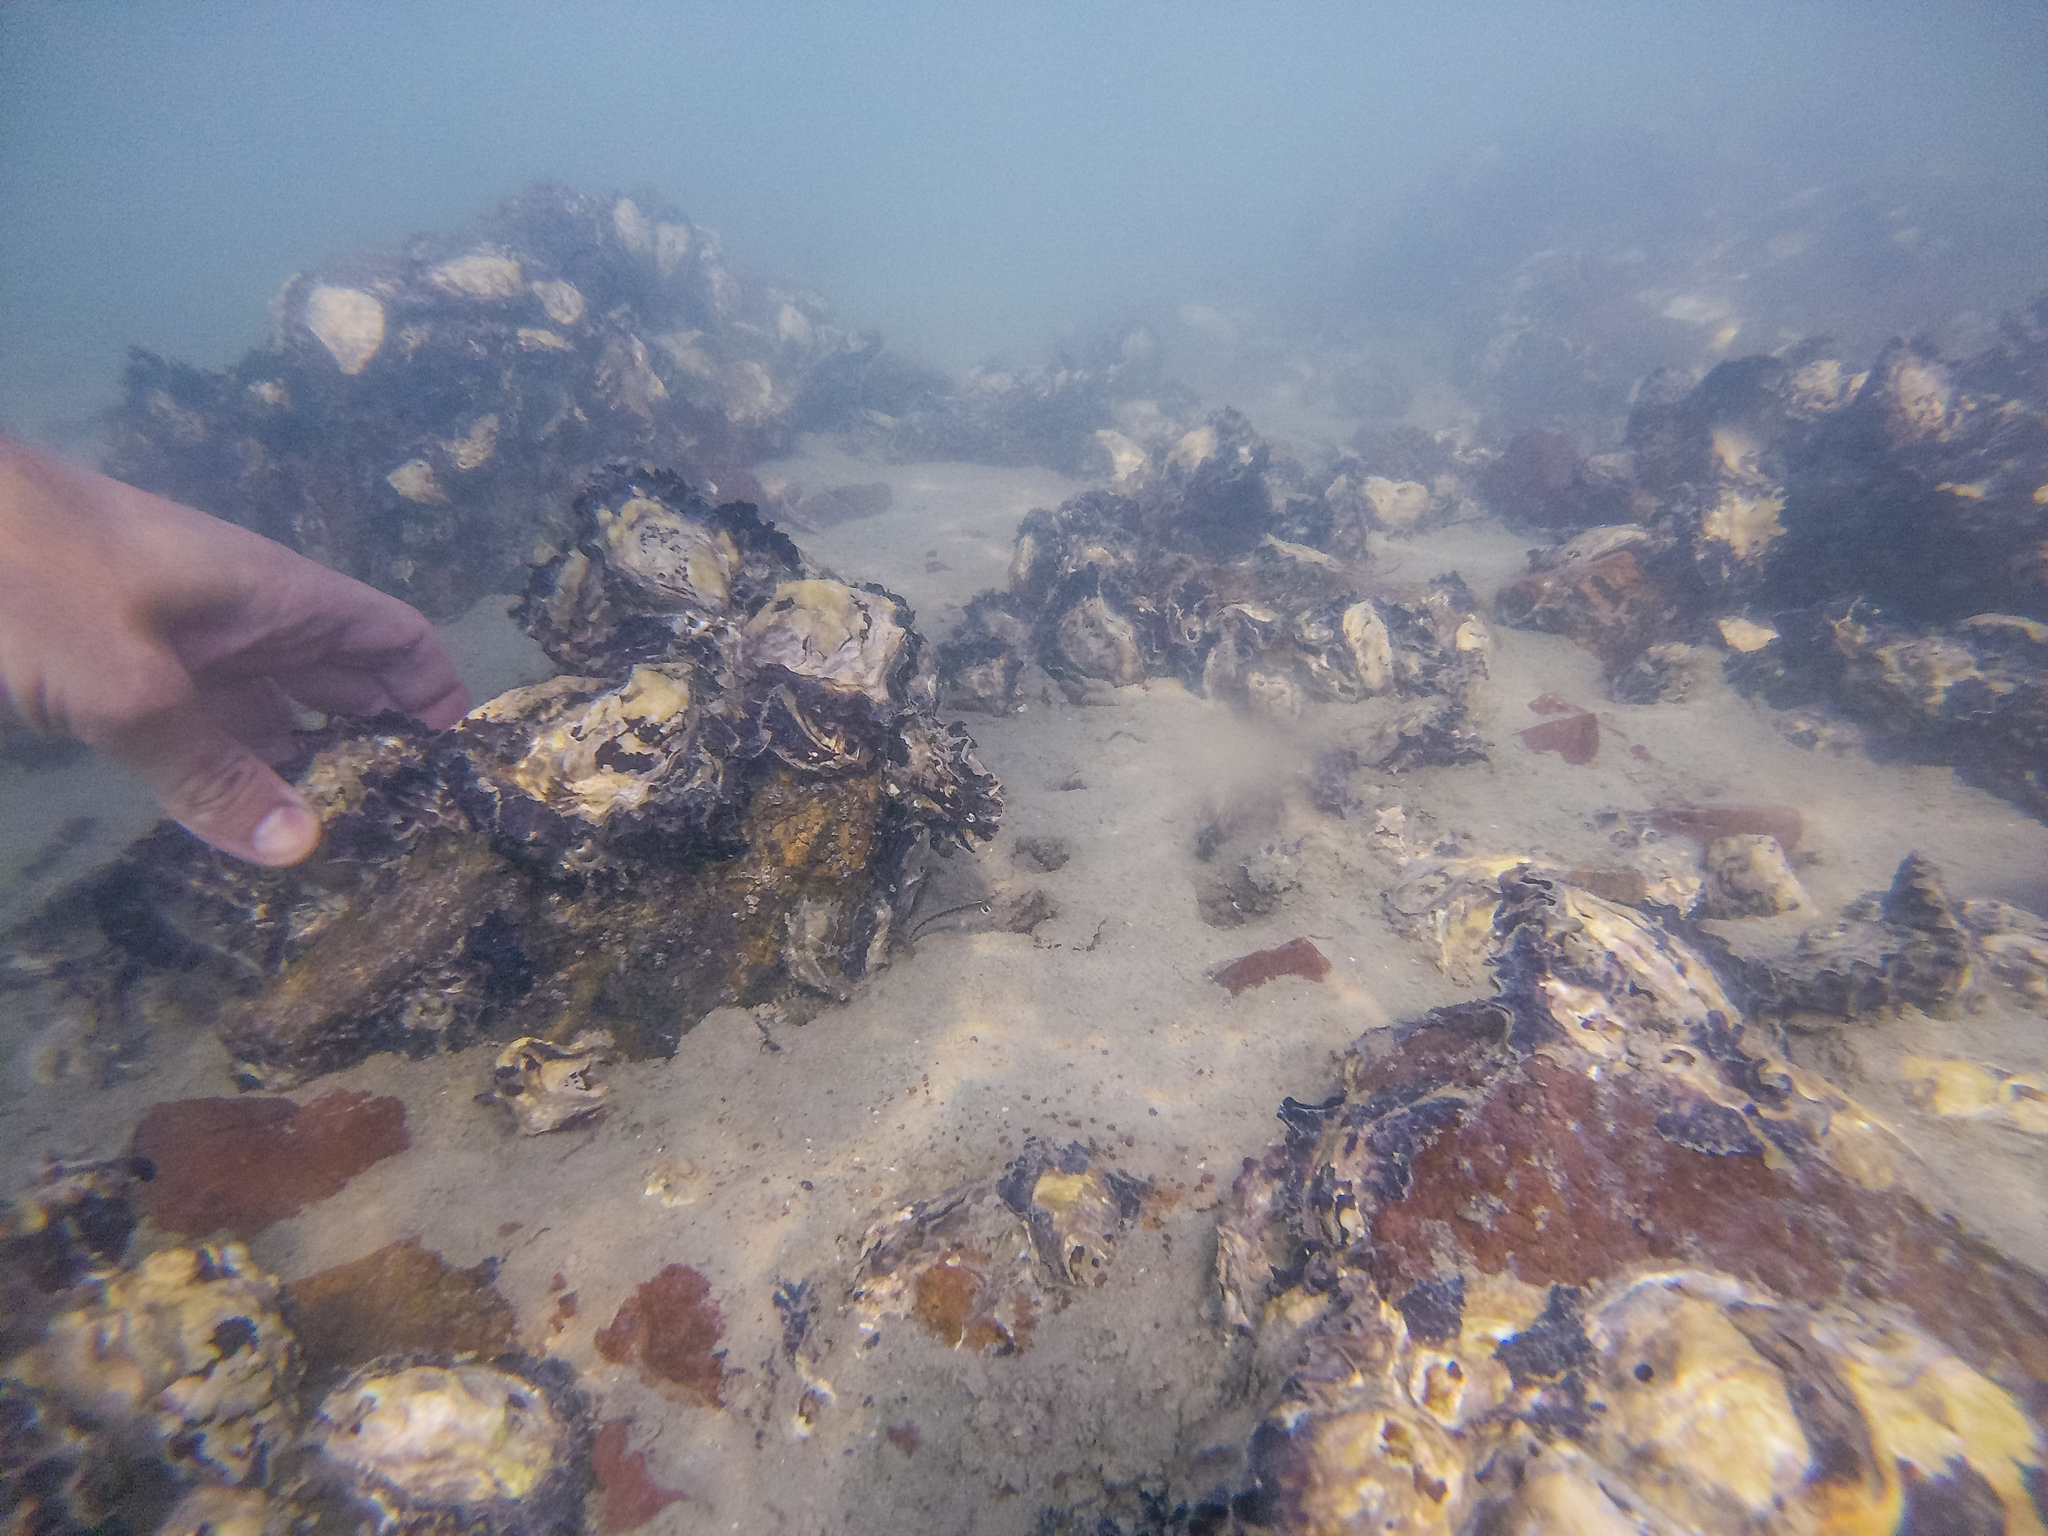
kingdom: Animalia
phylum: Mollusca
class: Bivalvia
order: Ostreida
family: Ostreidae
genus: Saccostrea
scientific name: Saccostrea glomerata
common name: Sydney cupped oyster
